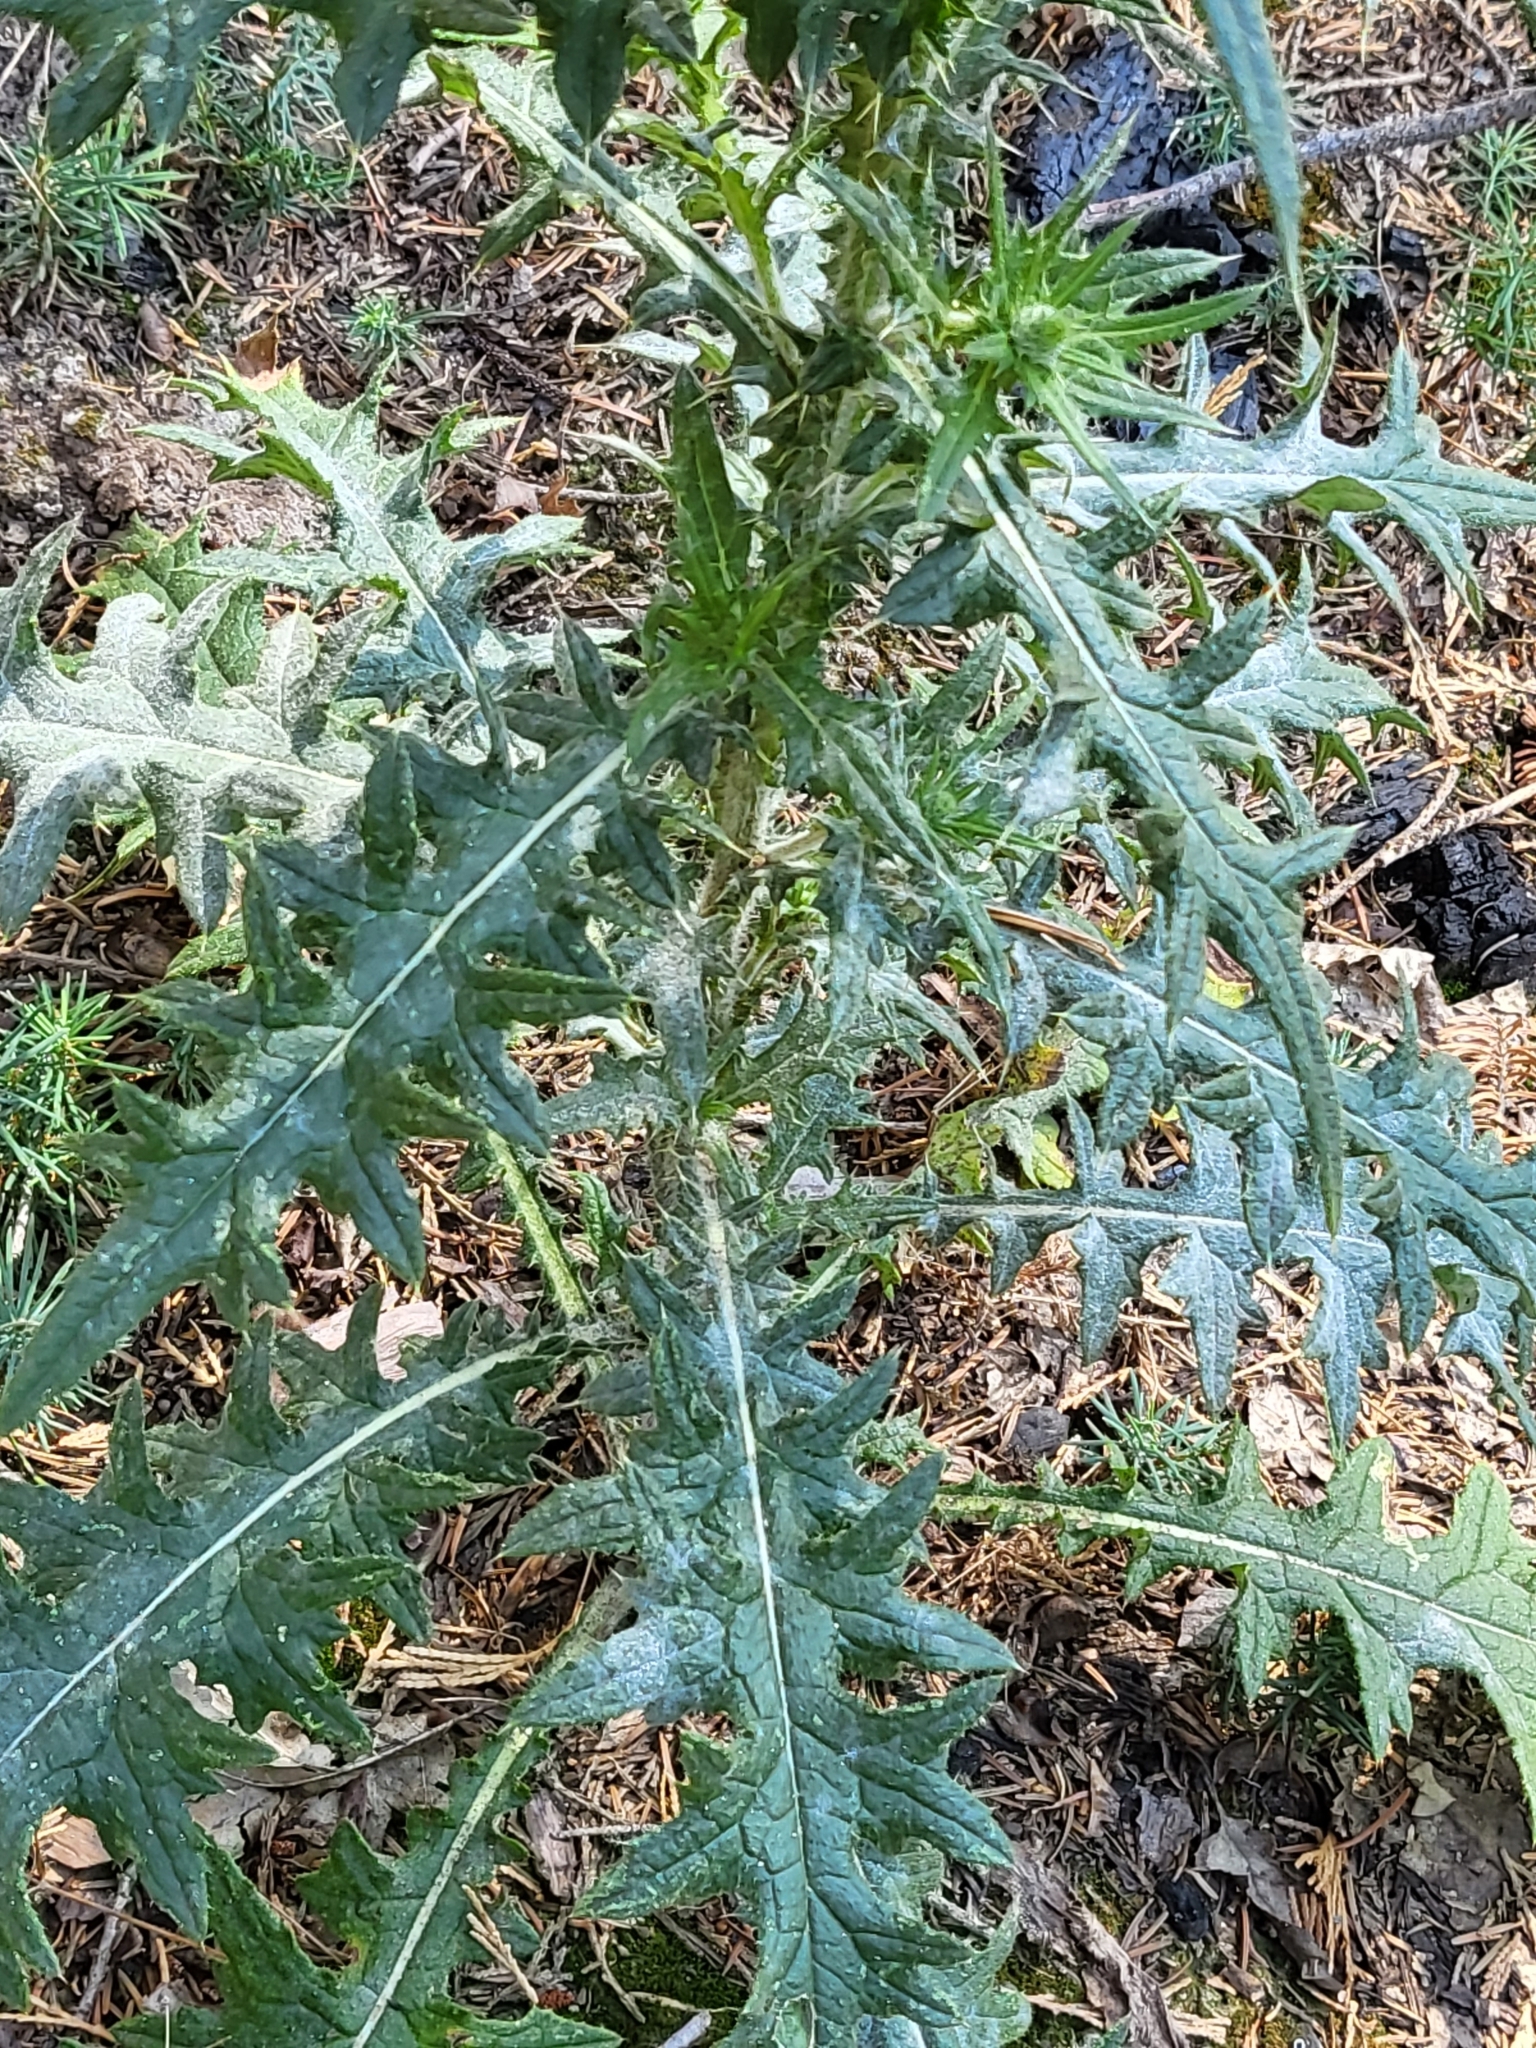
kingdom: Plantae
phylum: Tracheophyta
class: Magnoliopsida
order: Asterales
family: Asteraceae
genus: Cirsium
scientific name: Cirsium vulgare
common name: Bull thistle
